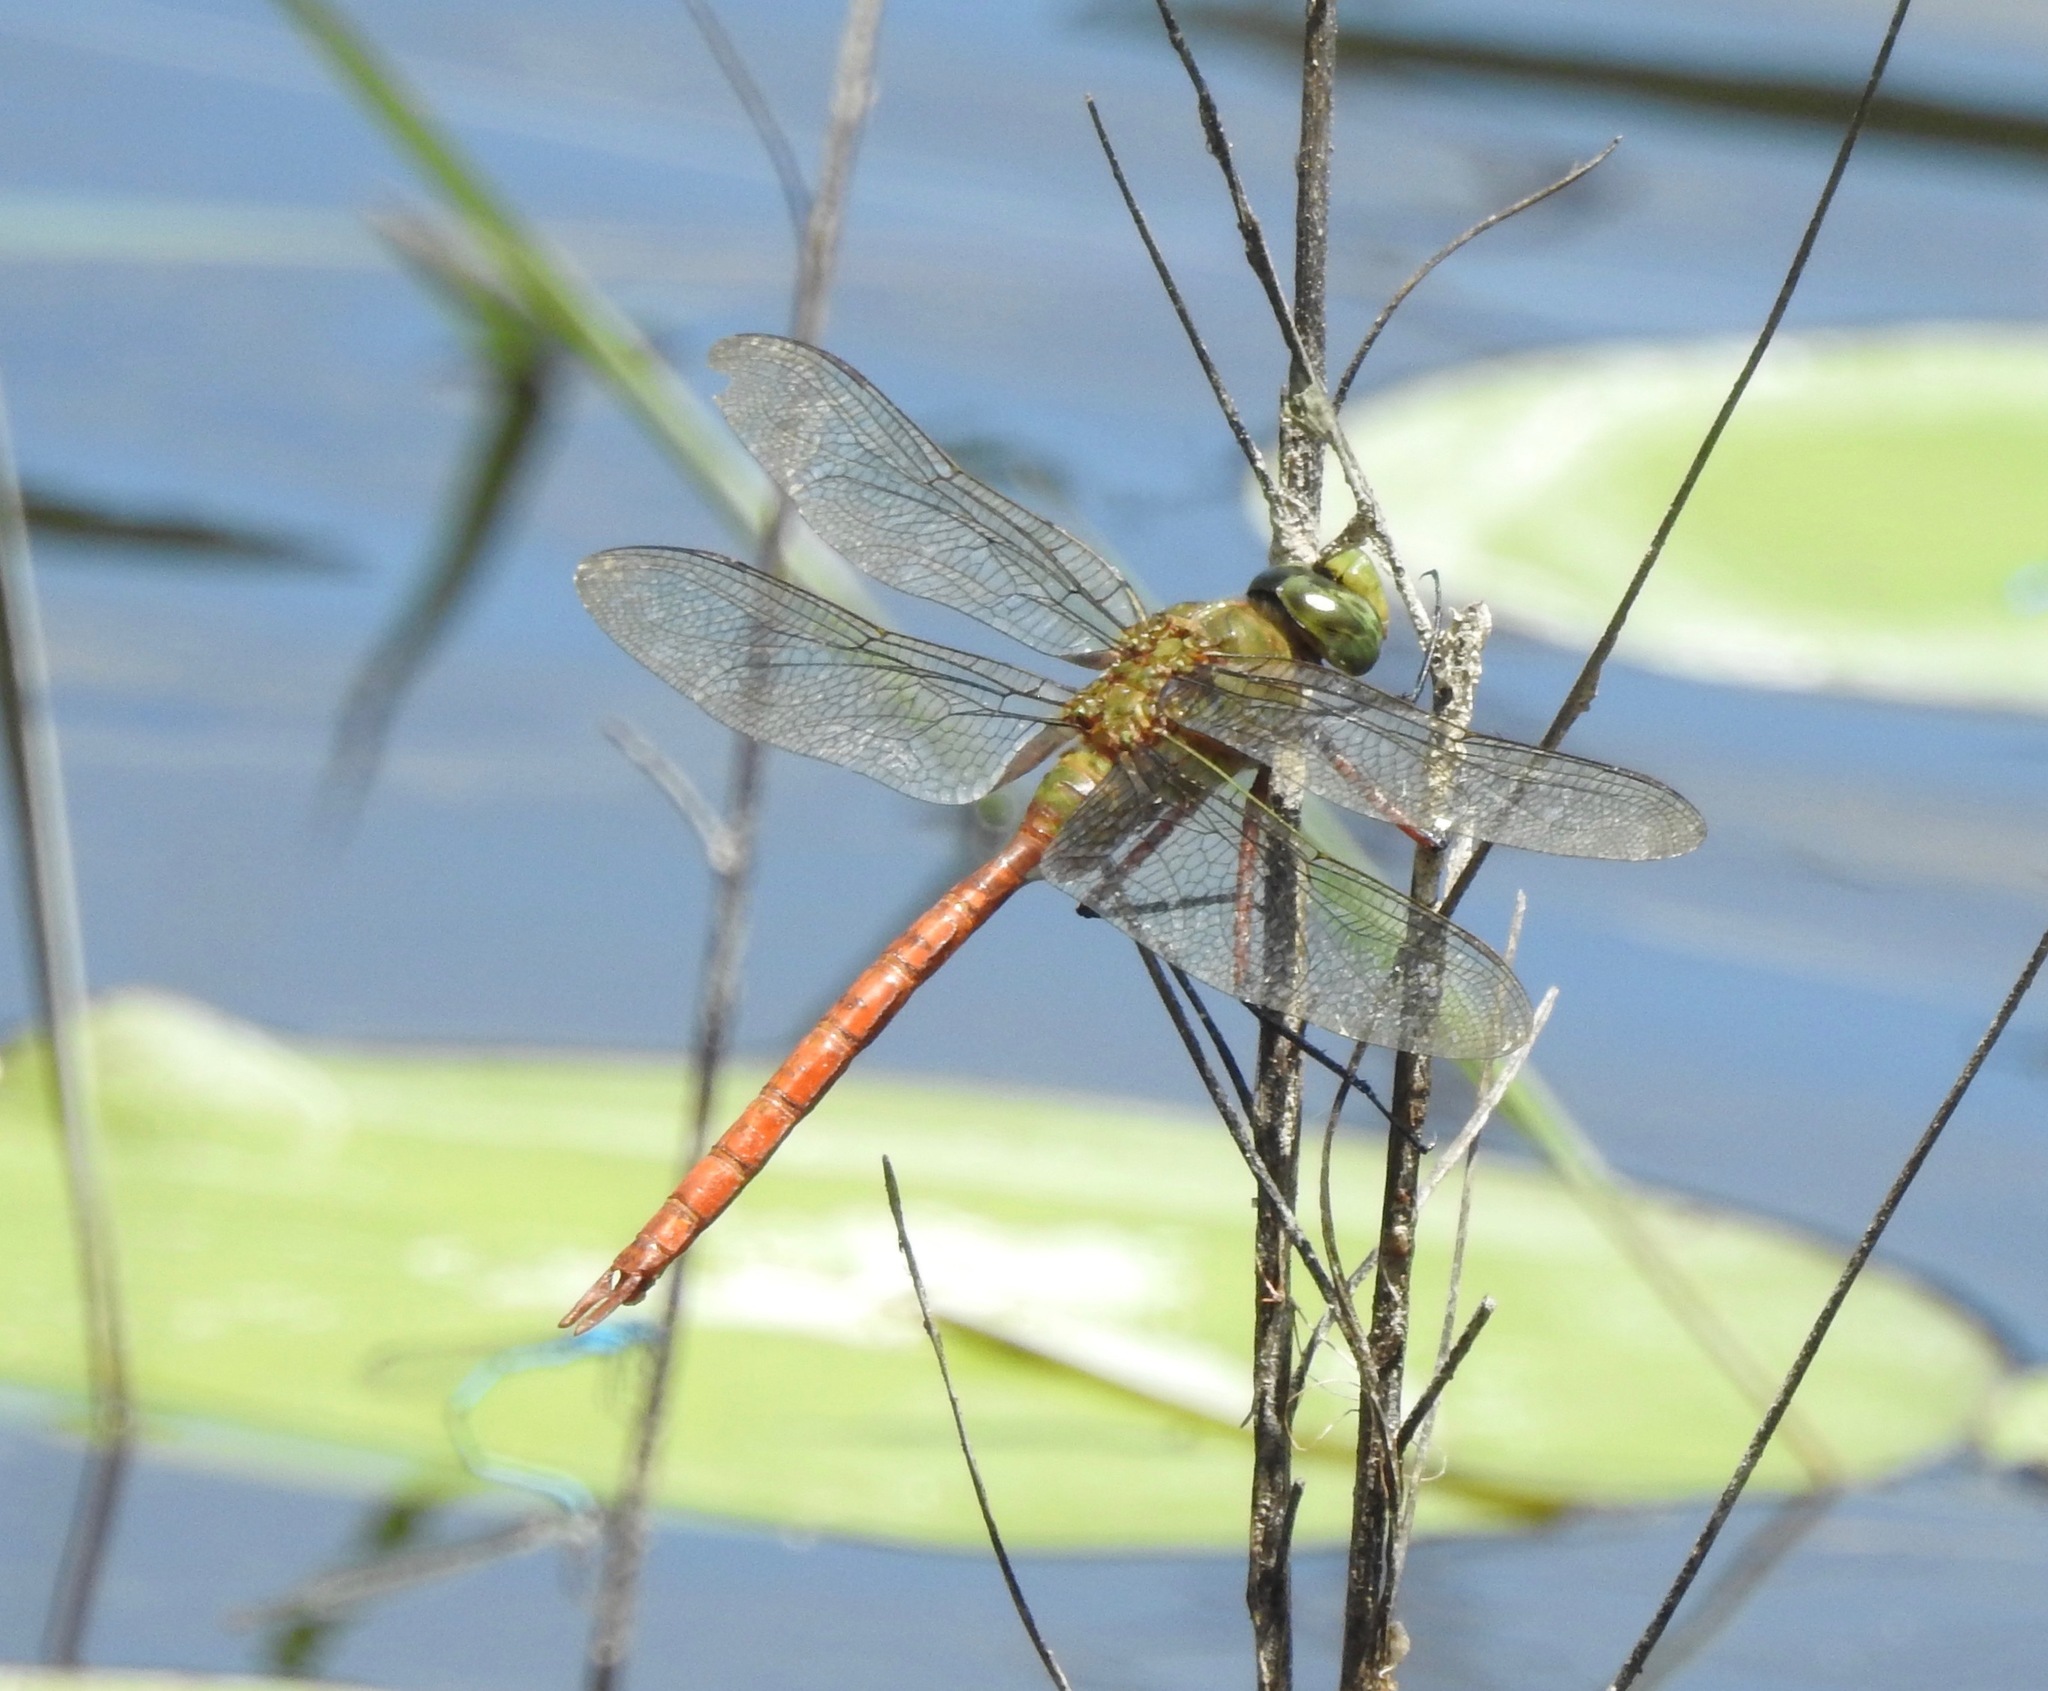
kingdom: Animalia
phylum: Arthropoda
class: Insecta
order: Odonata
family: Aeshnidae
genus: Anax
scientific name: Anax longipes
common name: Comet darner
